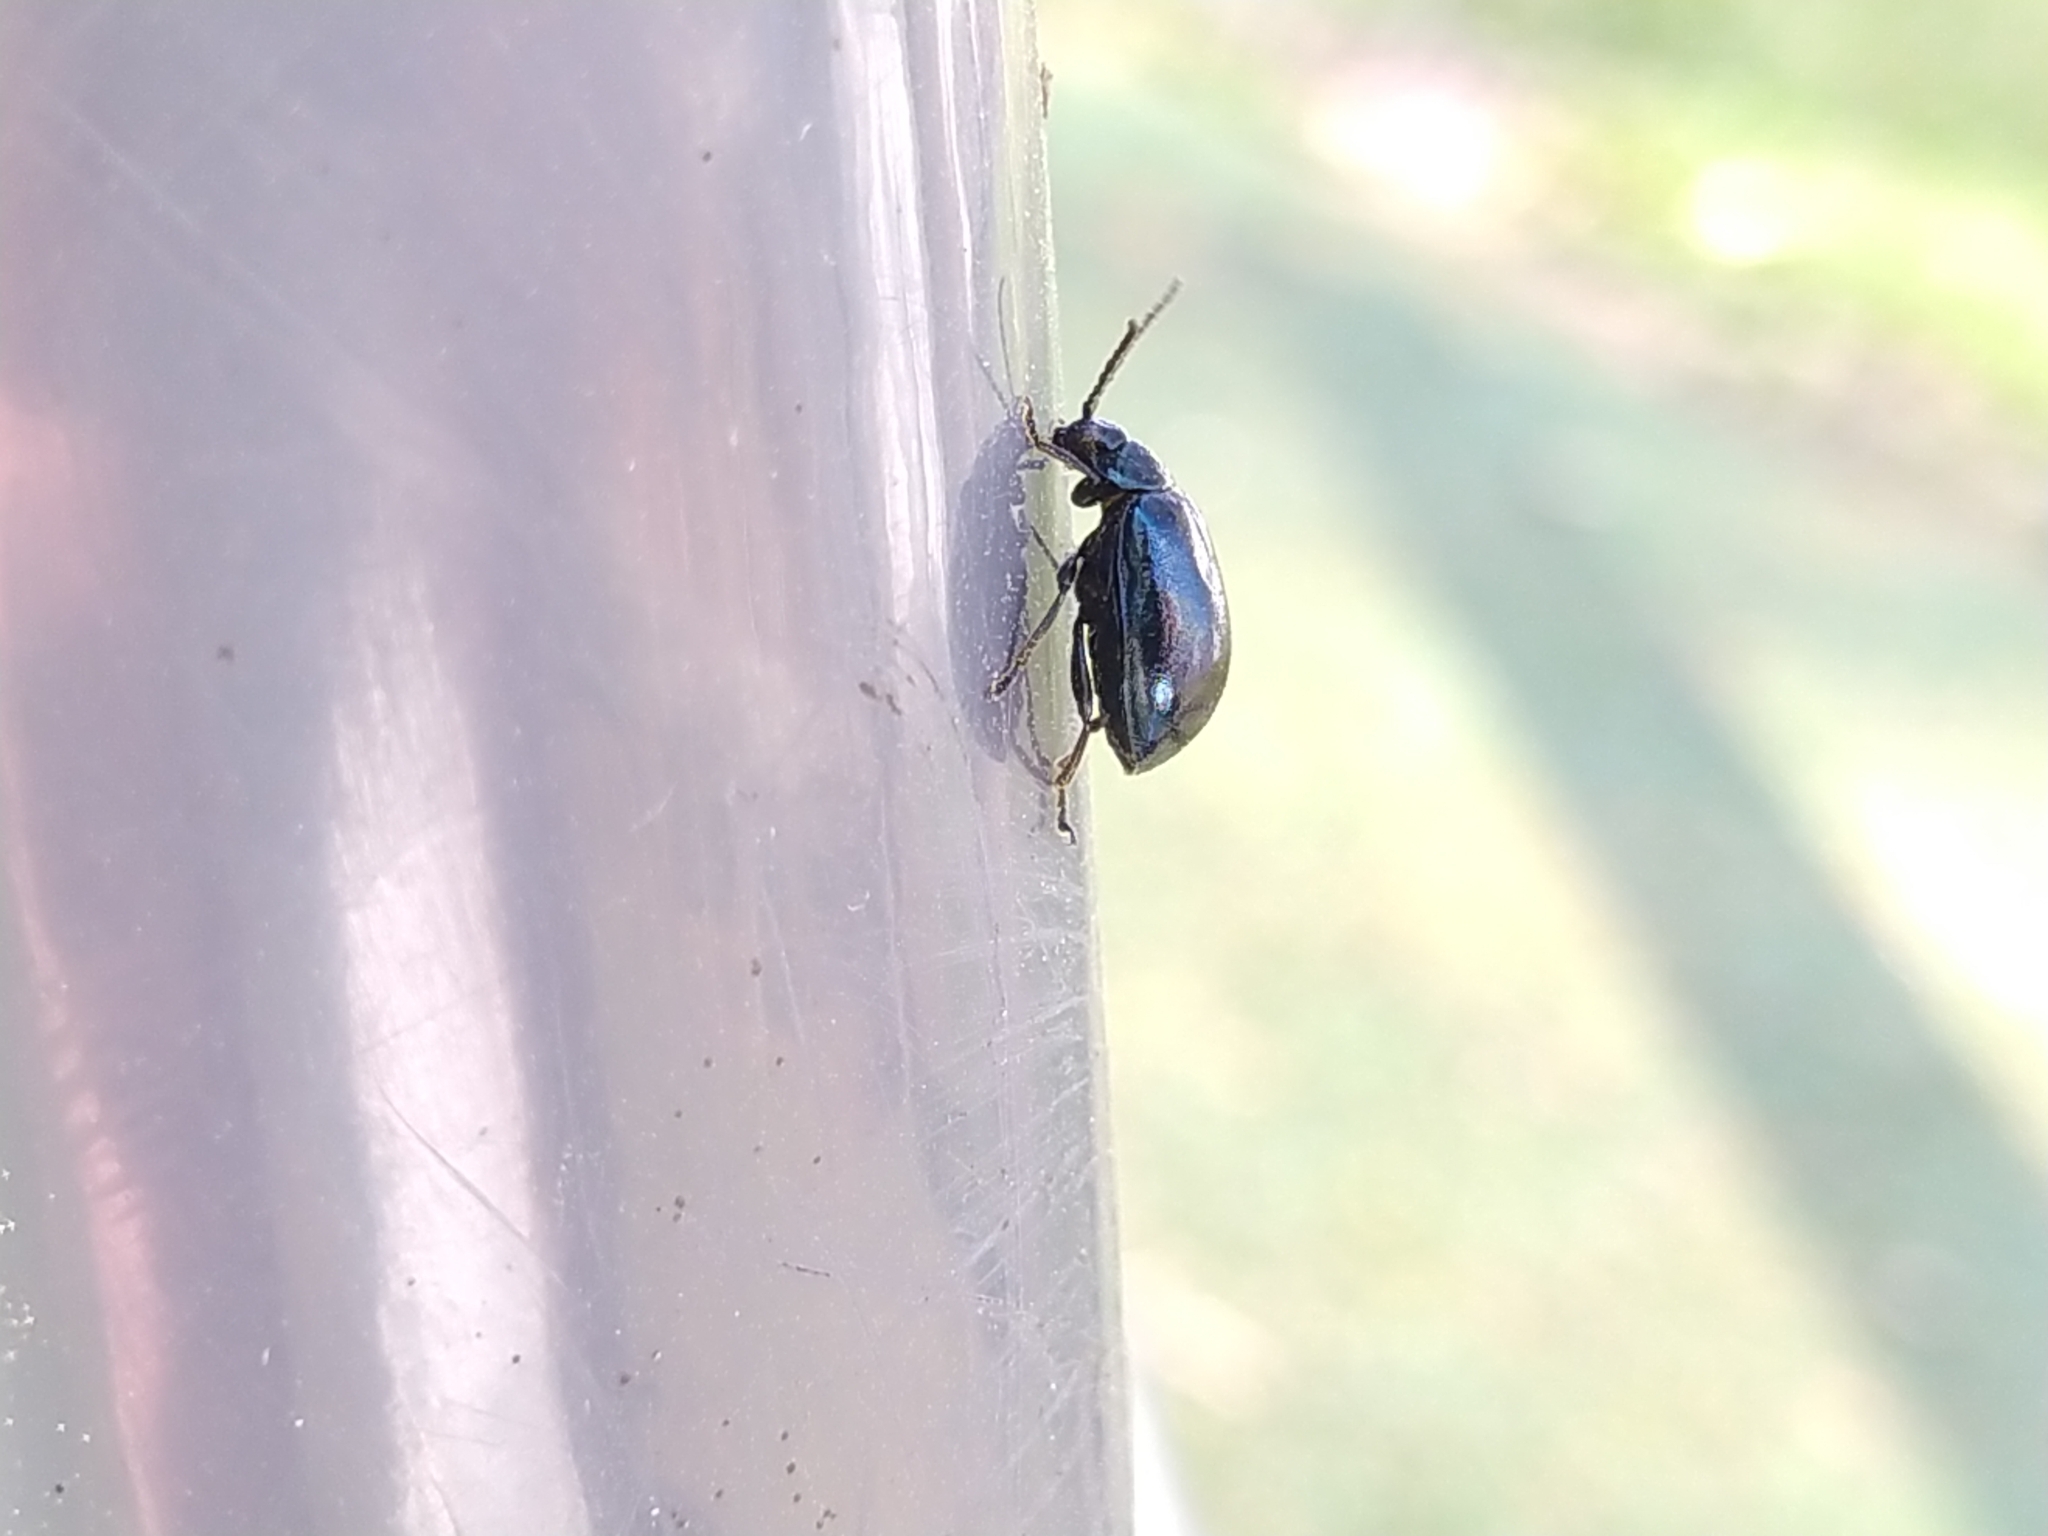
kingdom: Animalia
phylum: Arthropoda
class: Insecta
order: Coleoptera
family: Chrysomelidae
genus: Agelastica
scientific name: Agelastica alni
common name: Alder leaf beetle
